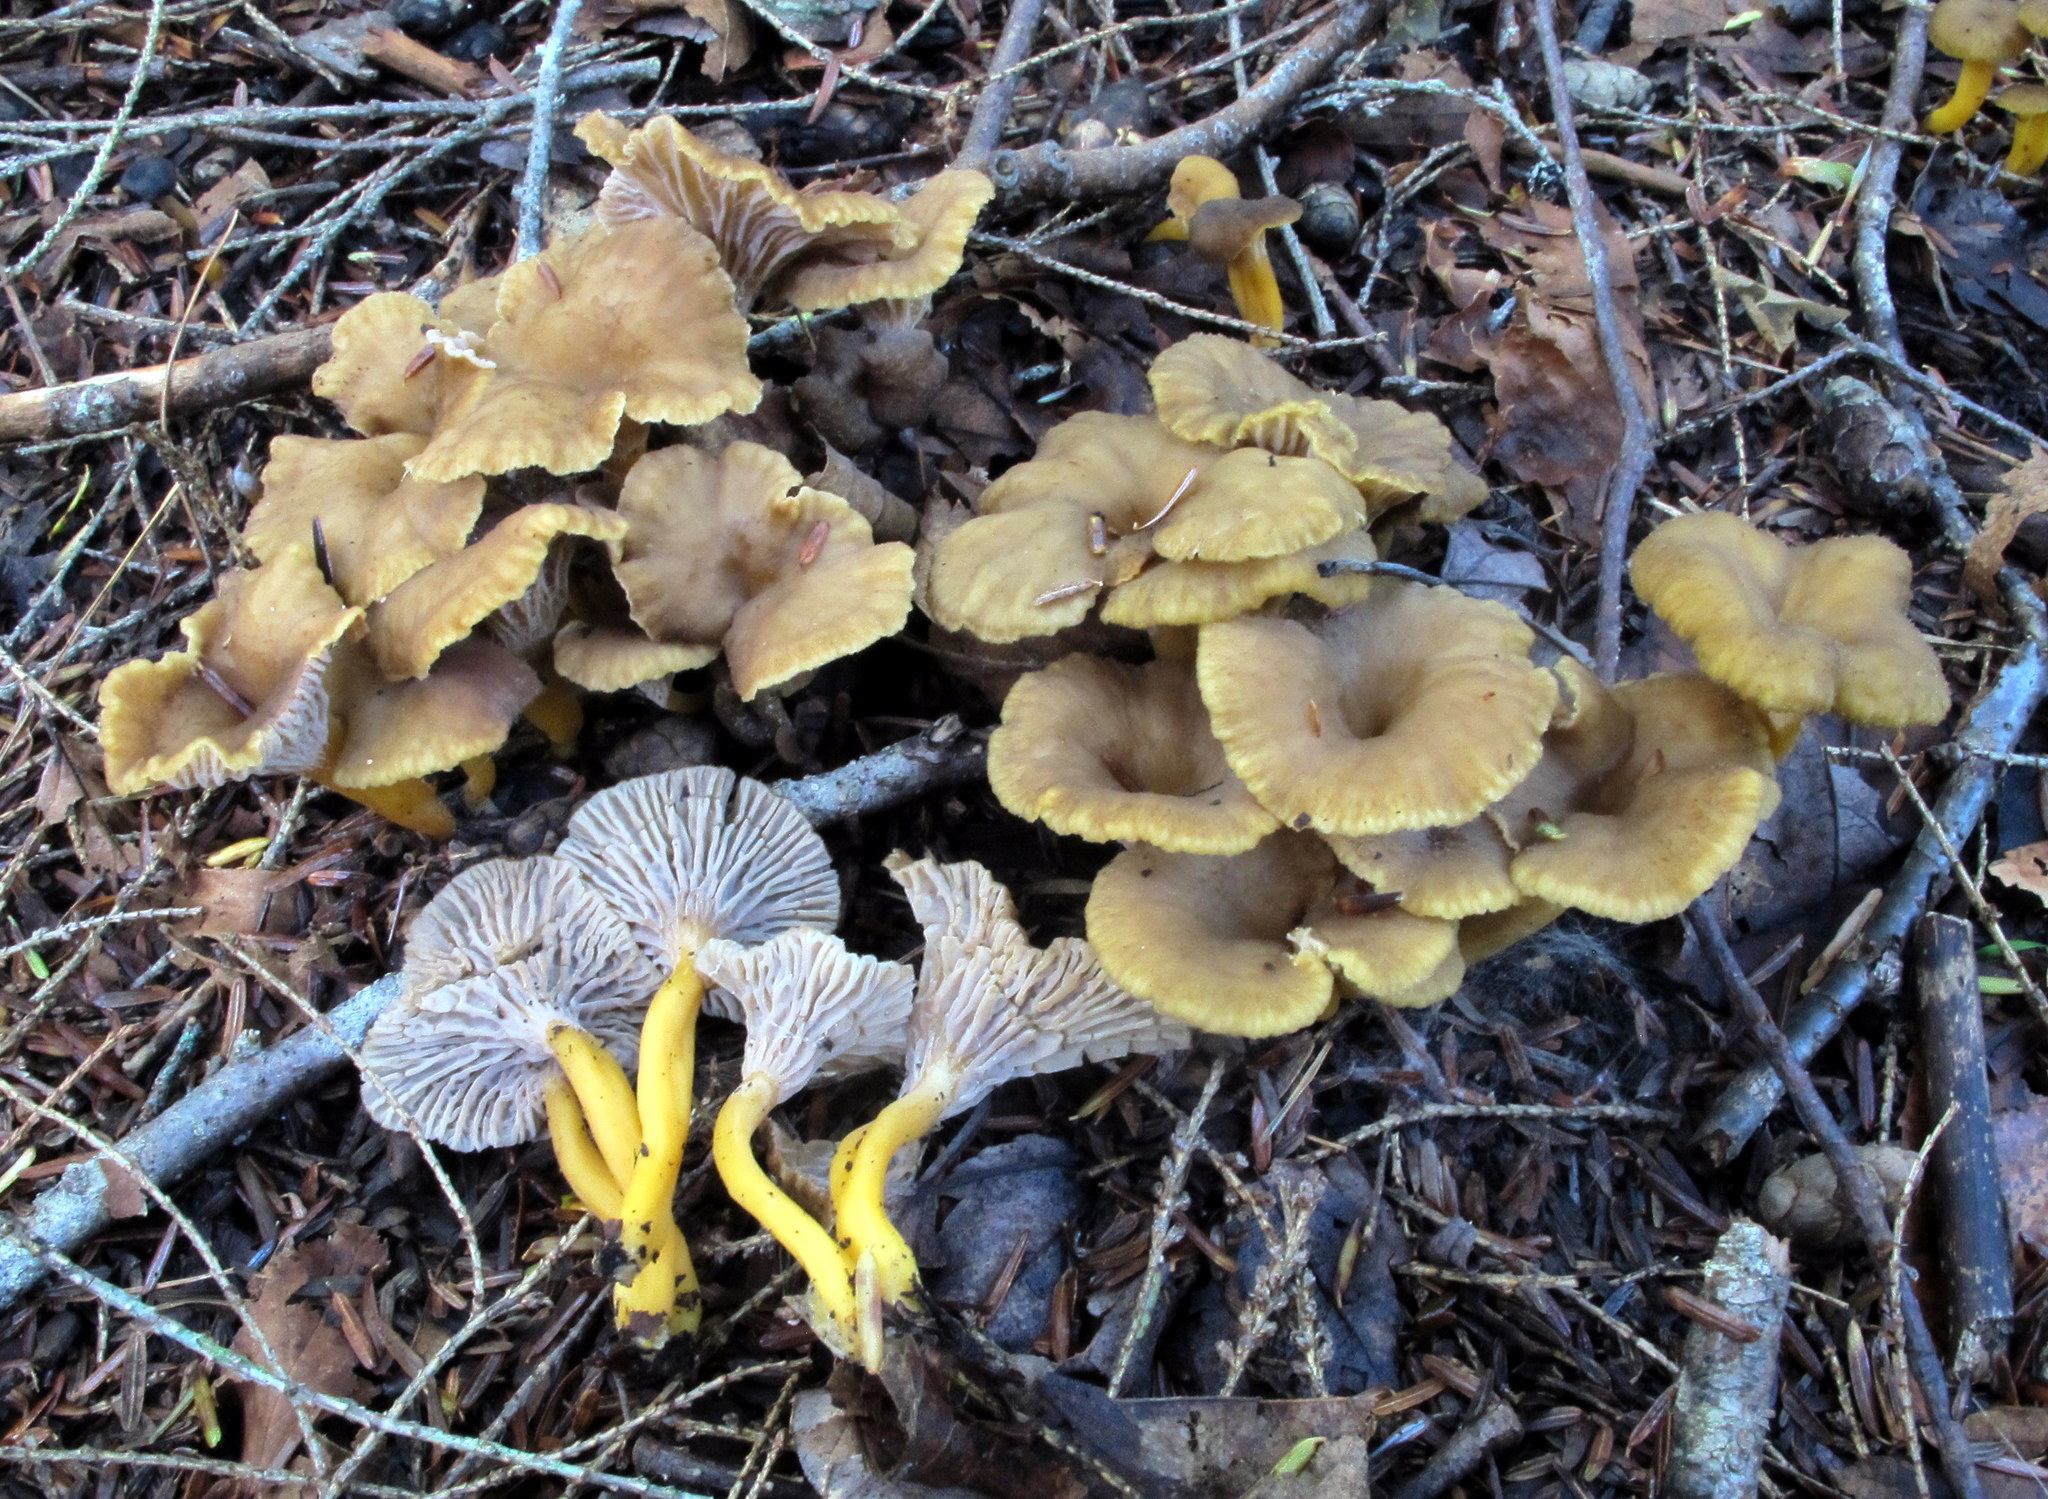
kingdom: Fungi
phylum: Basidiomycota
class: Agaricomycetes
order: Cantharellales
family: Hydnaceae
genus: Craterellus
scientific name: Craterellus tubaeformis
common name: Yellowfoot
